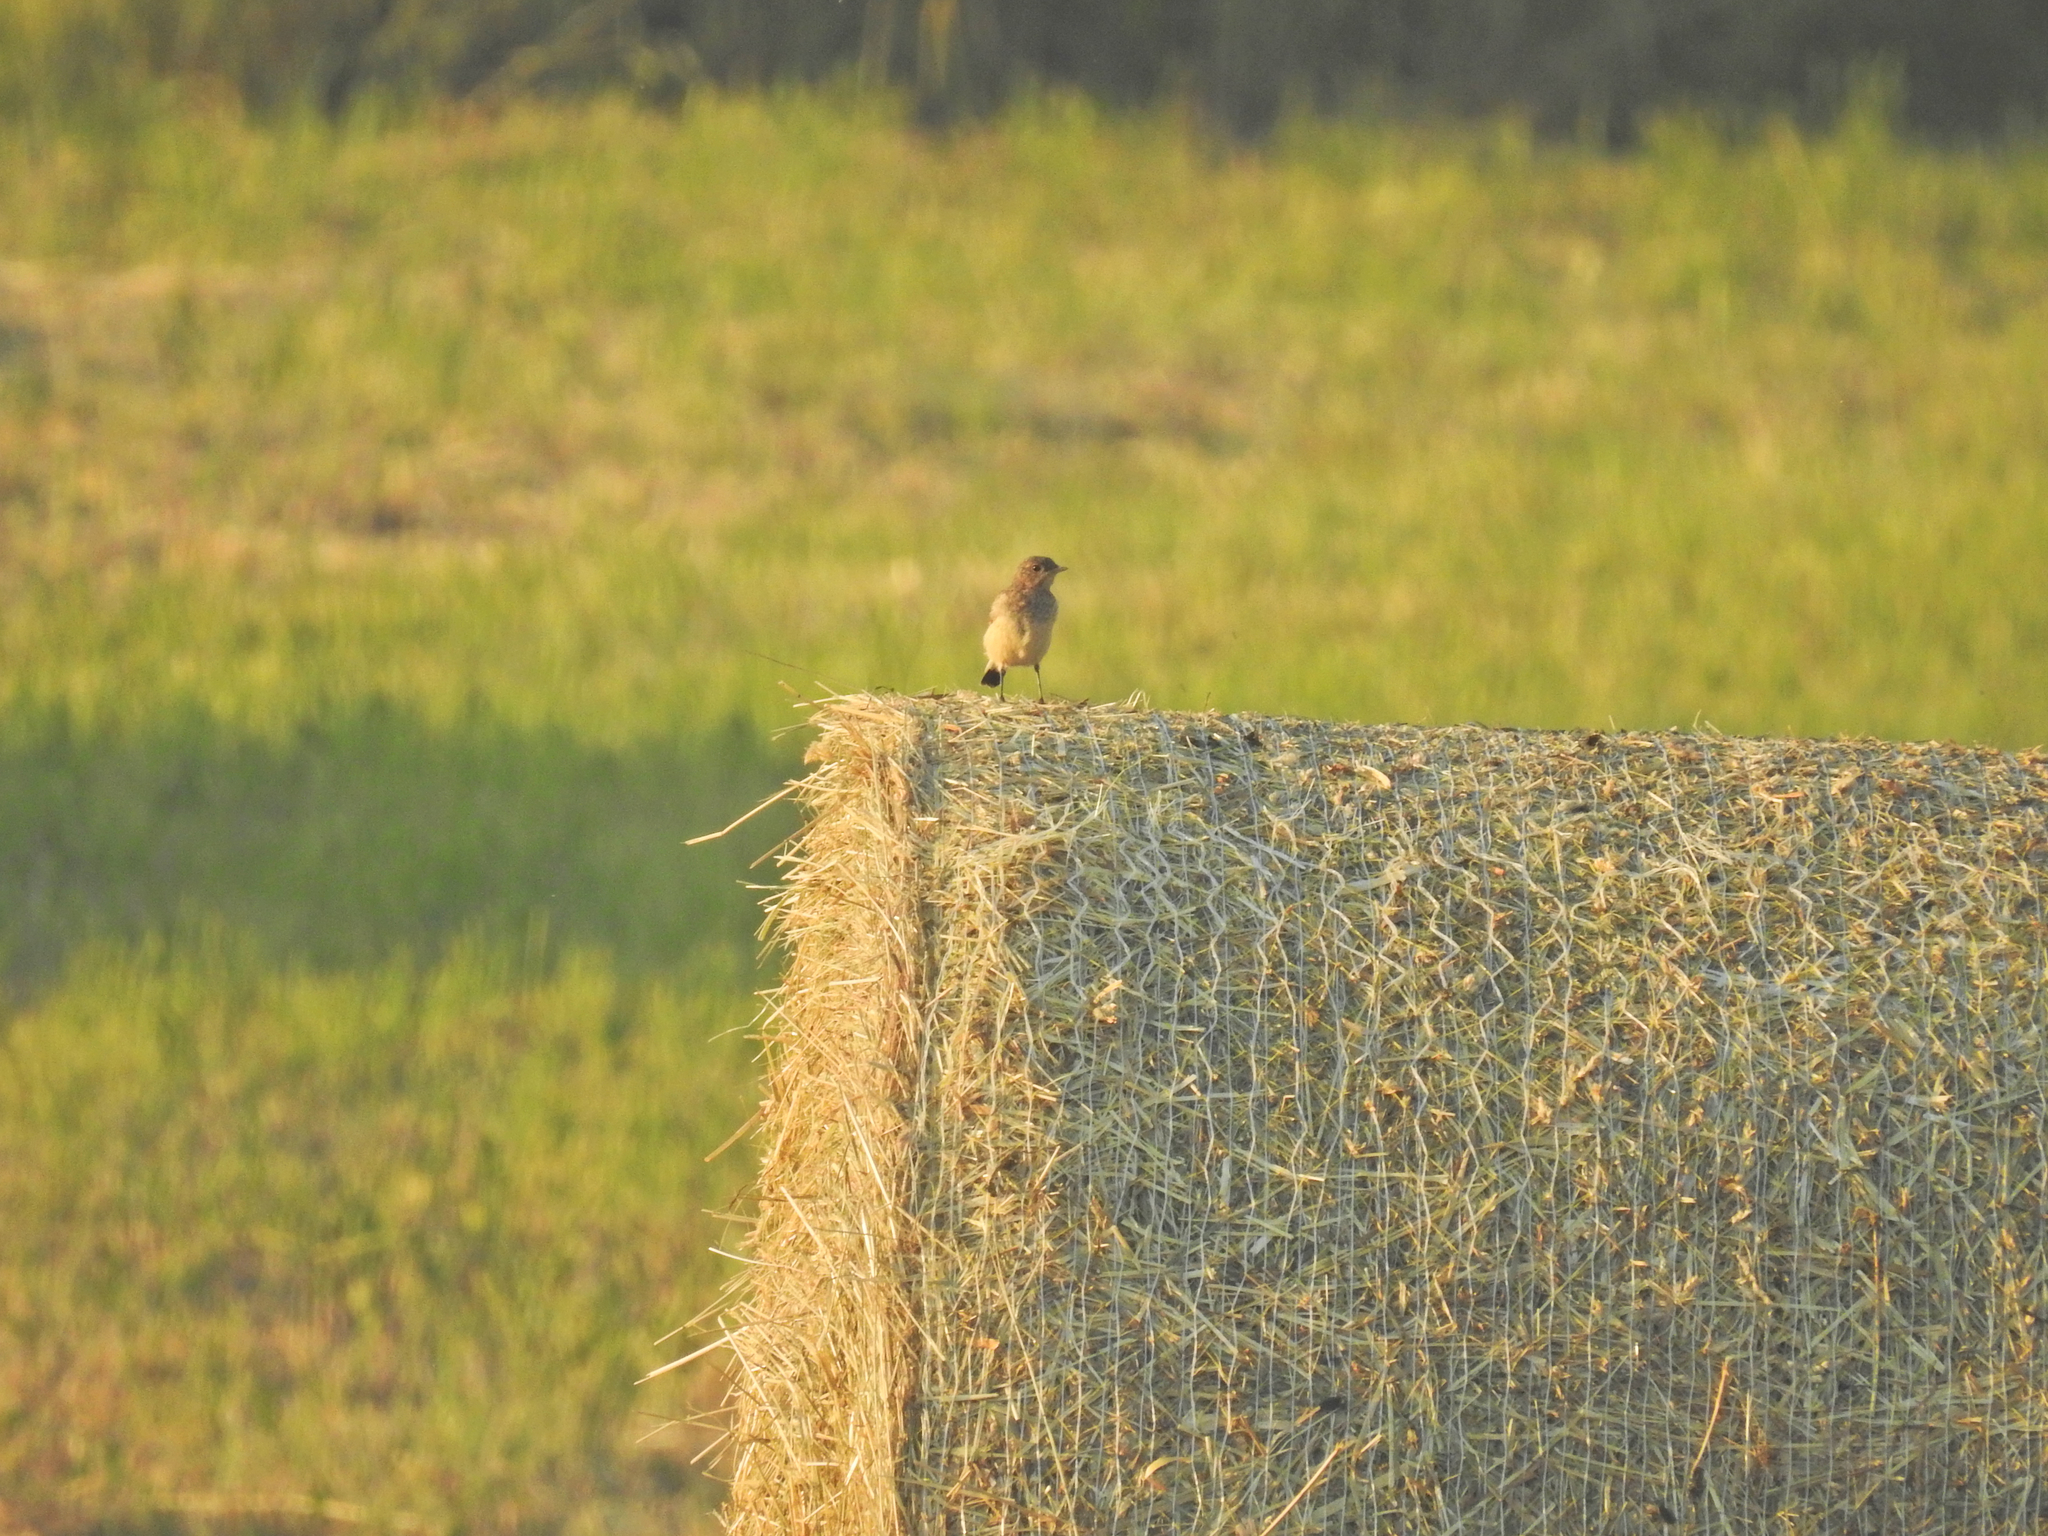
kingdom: Animalia
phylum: Chordata
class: Aves
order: Passeriformes
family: Muscicapidae
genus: Oenanthe
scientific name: Oenanthe oenanthe
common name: Northern wheatear
